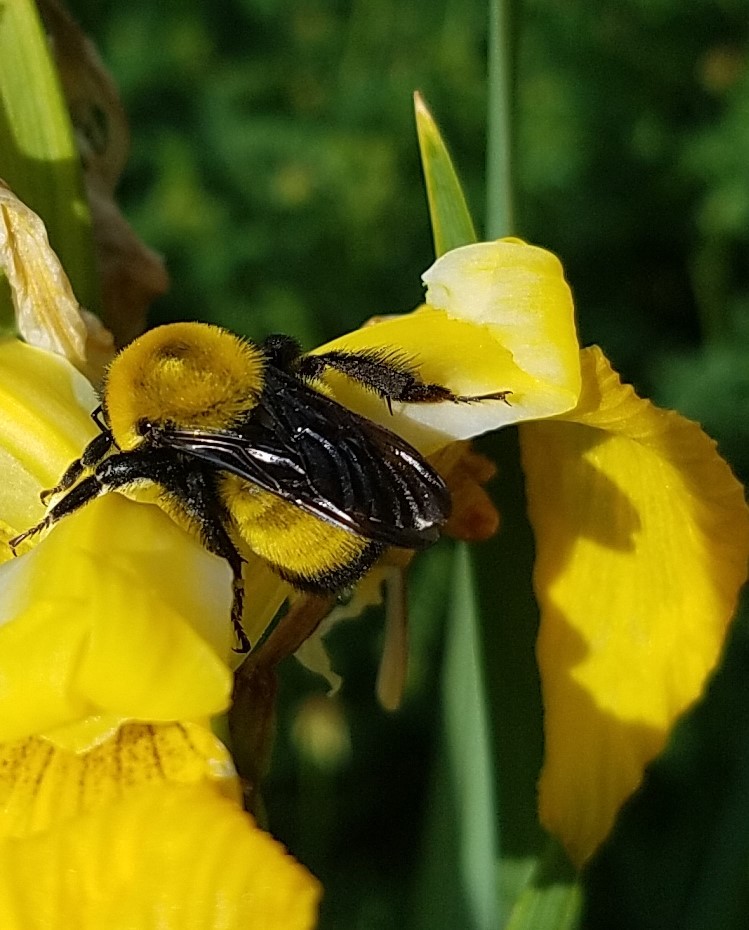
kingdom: Animalia
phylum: Arthropoda
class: Insecta
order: Hymenoptera
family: Apidae
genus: Bombus
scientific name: Bombus morrisoni
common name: Morrison bumble bee
